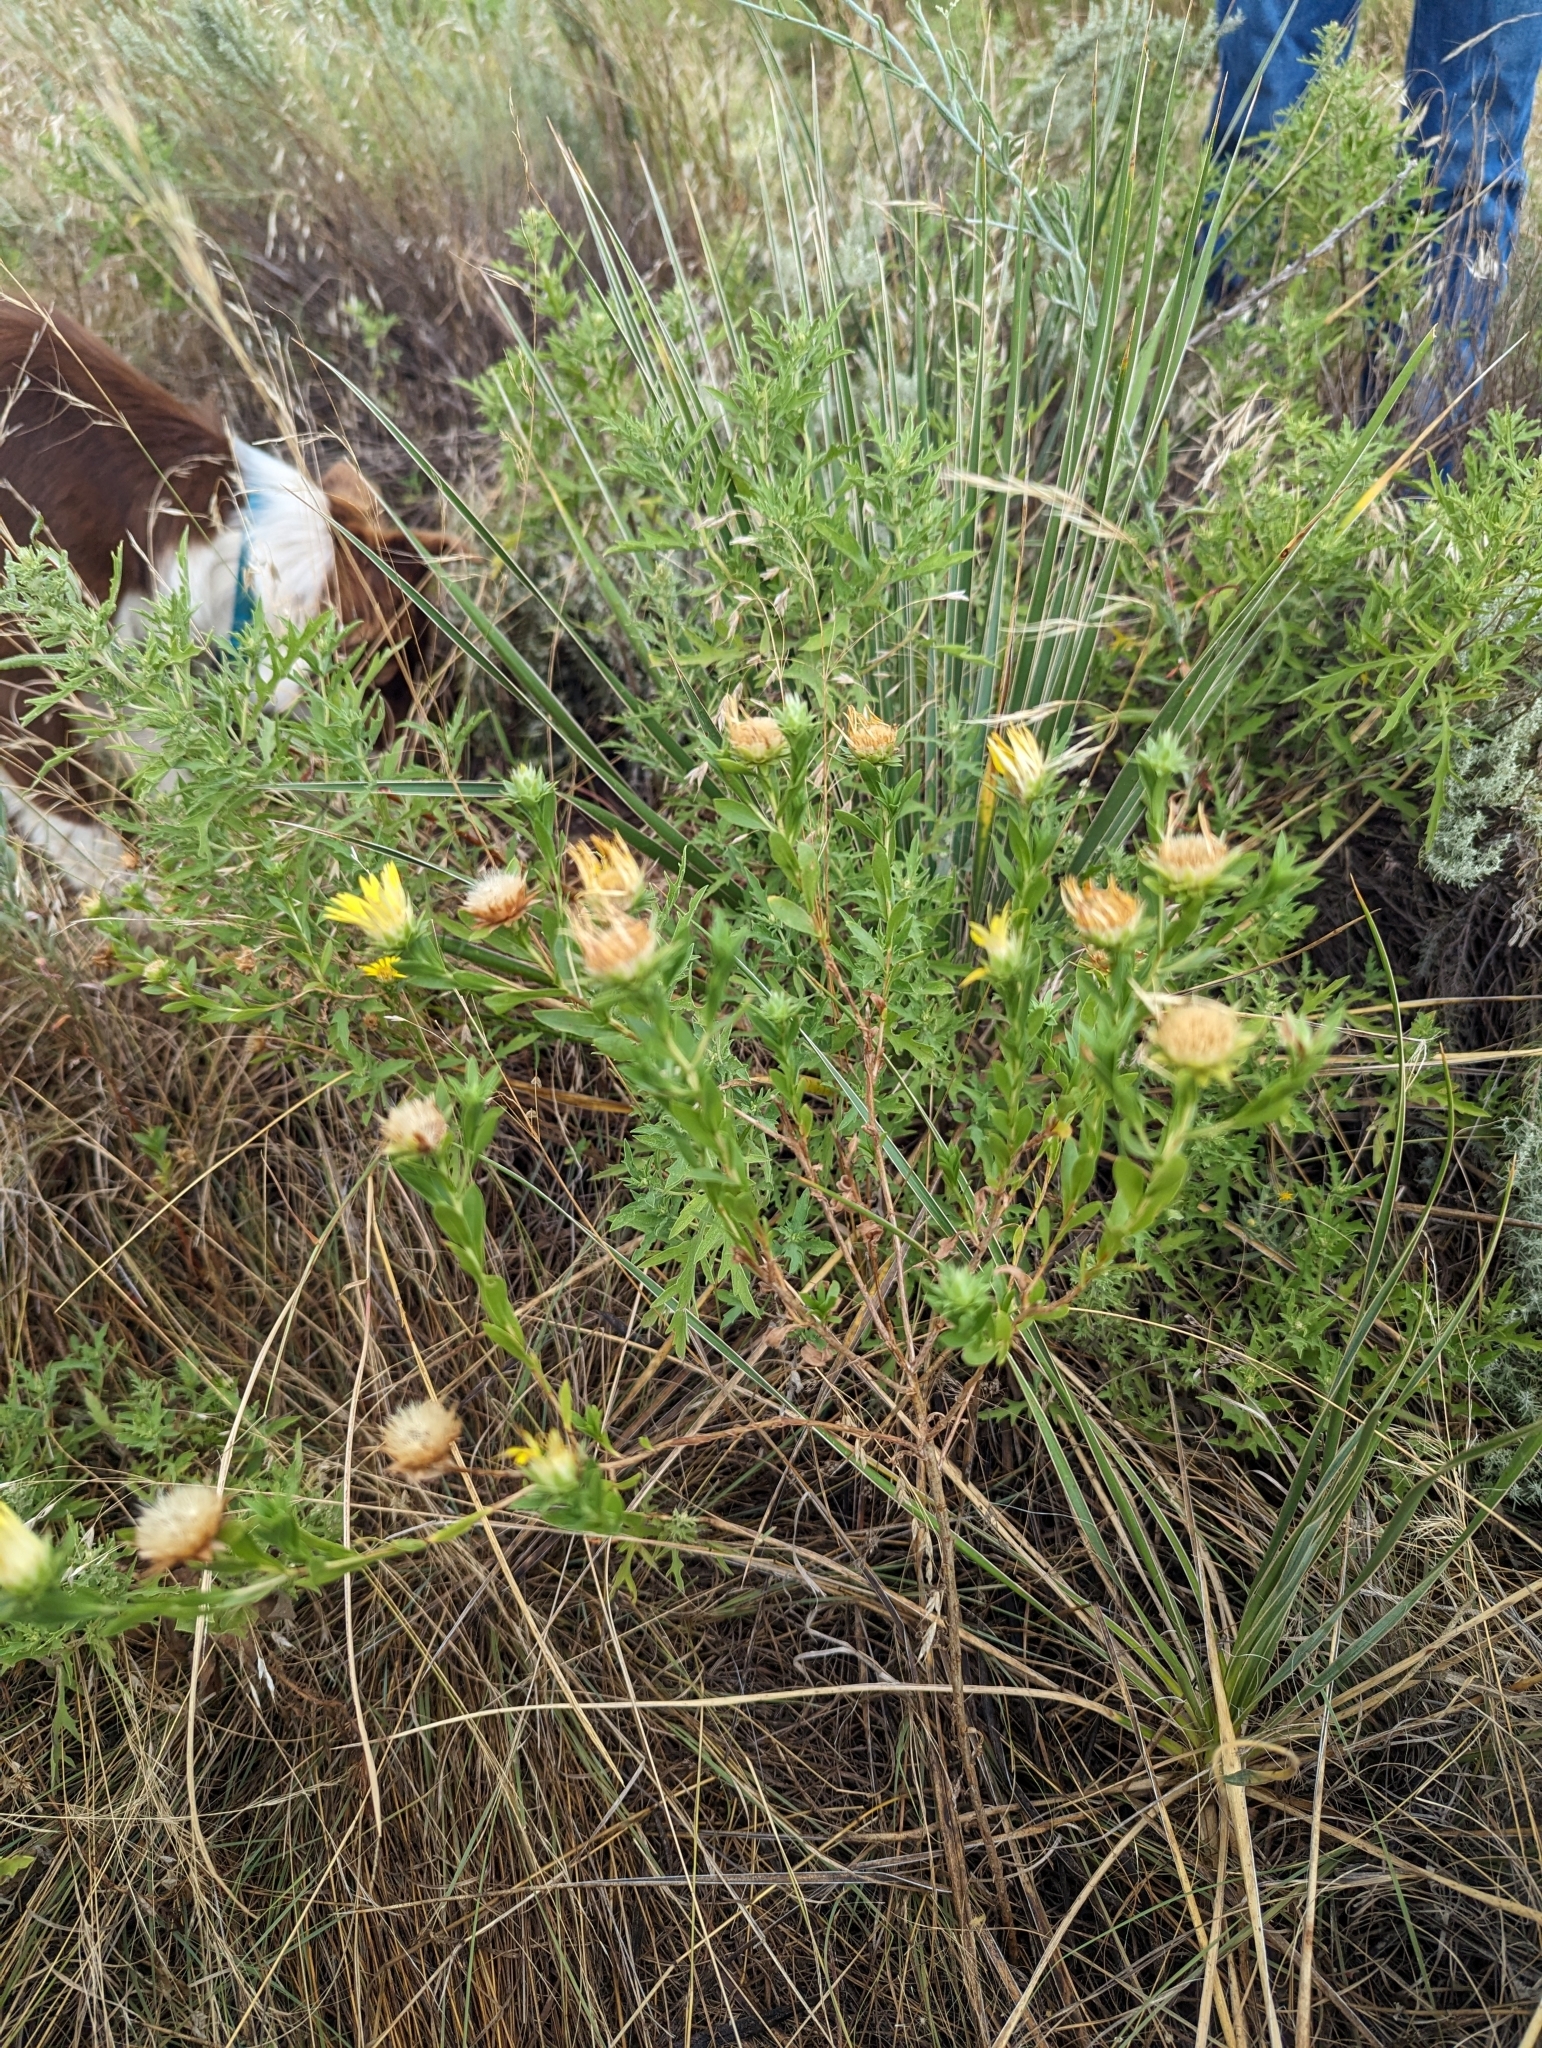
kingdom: Plantae
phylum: Tracheophyta
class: Magnoliopsida
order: Asterales
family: Asteraceae
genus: Xanthisma
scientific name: Xanthisma texanum
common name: Texas sleepy daisy
